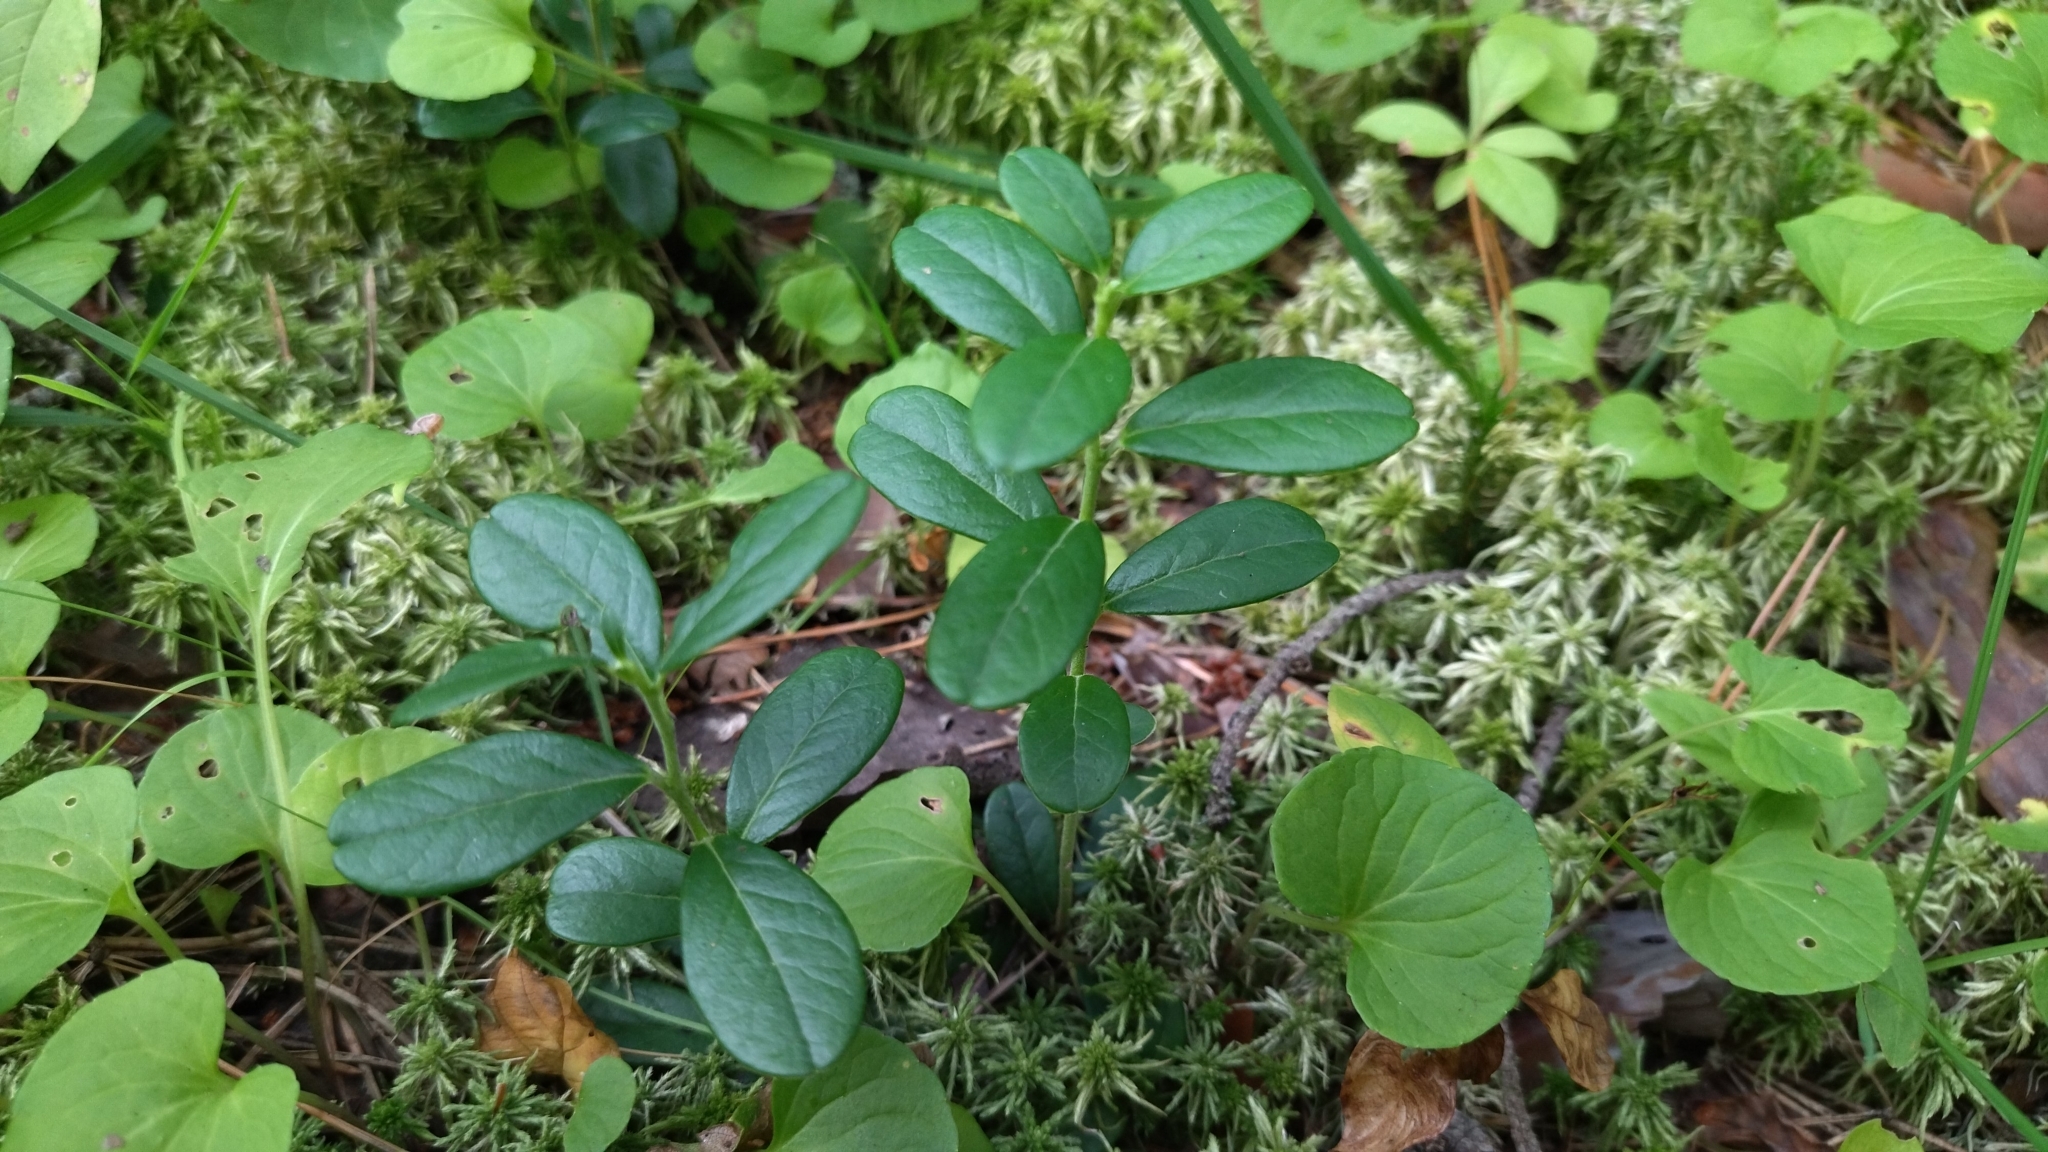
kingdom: Plantae
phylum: Tracheophyta
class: Magnoliopsida
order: Ericales
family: Ericaceae
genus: Vaccinium
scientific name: Vaccinium vitis-idaea
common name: Cowberry
